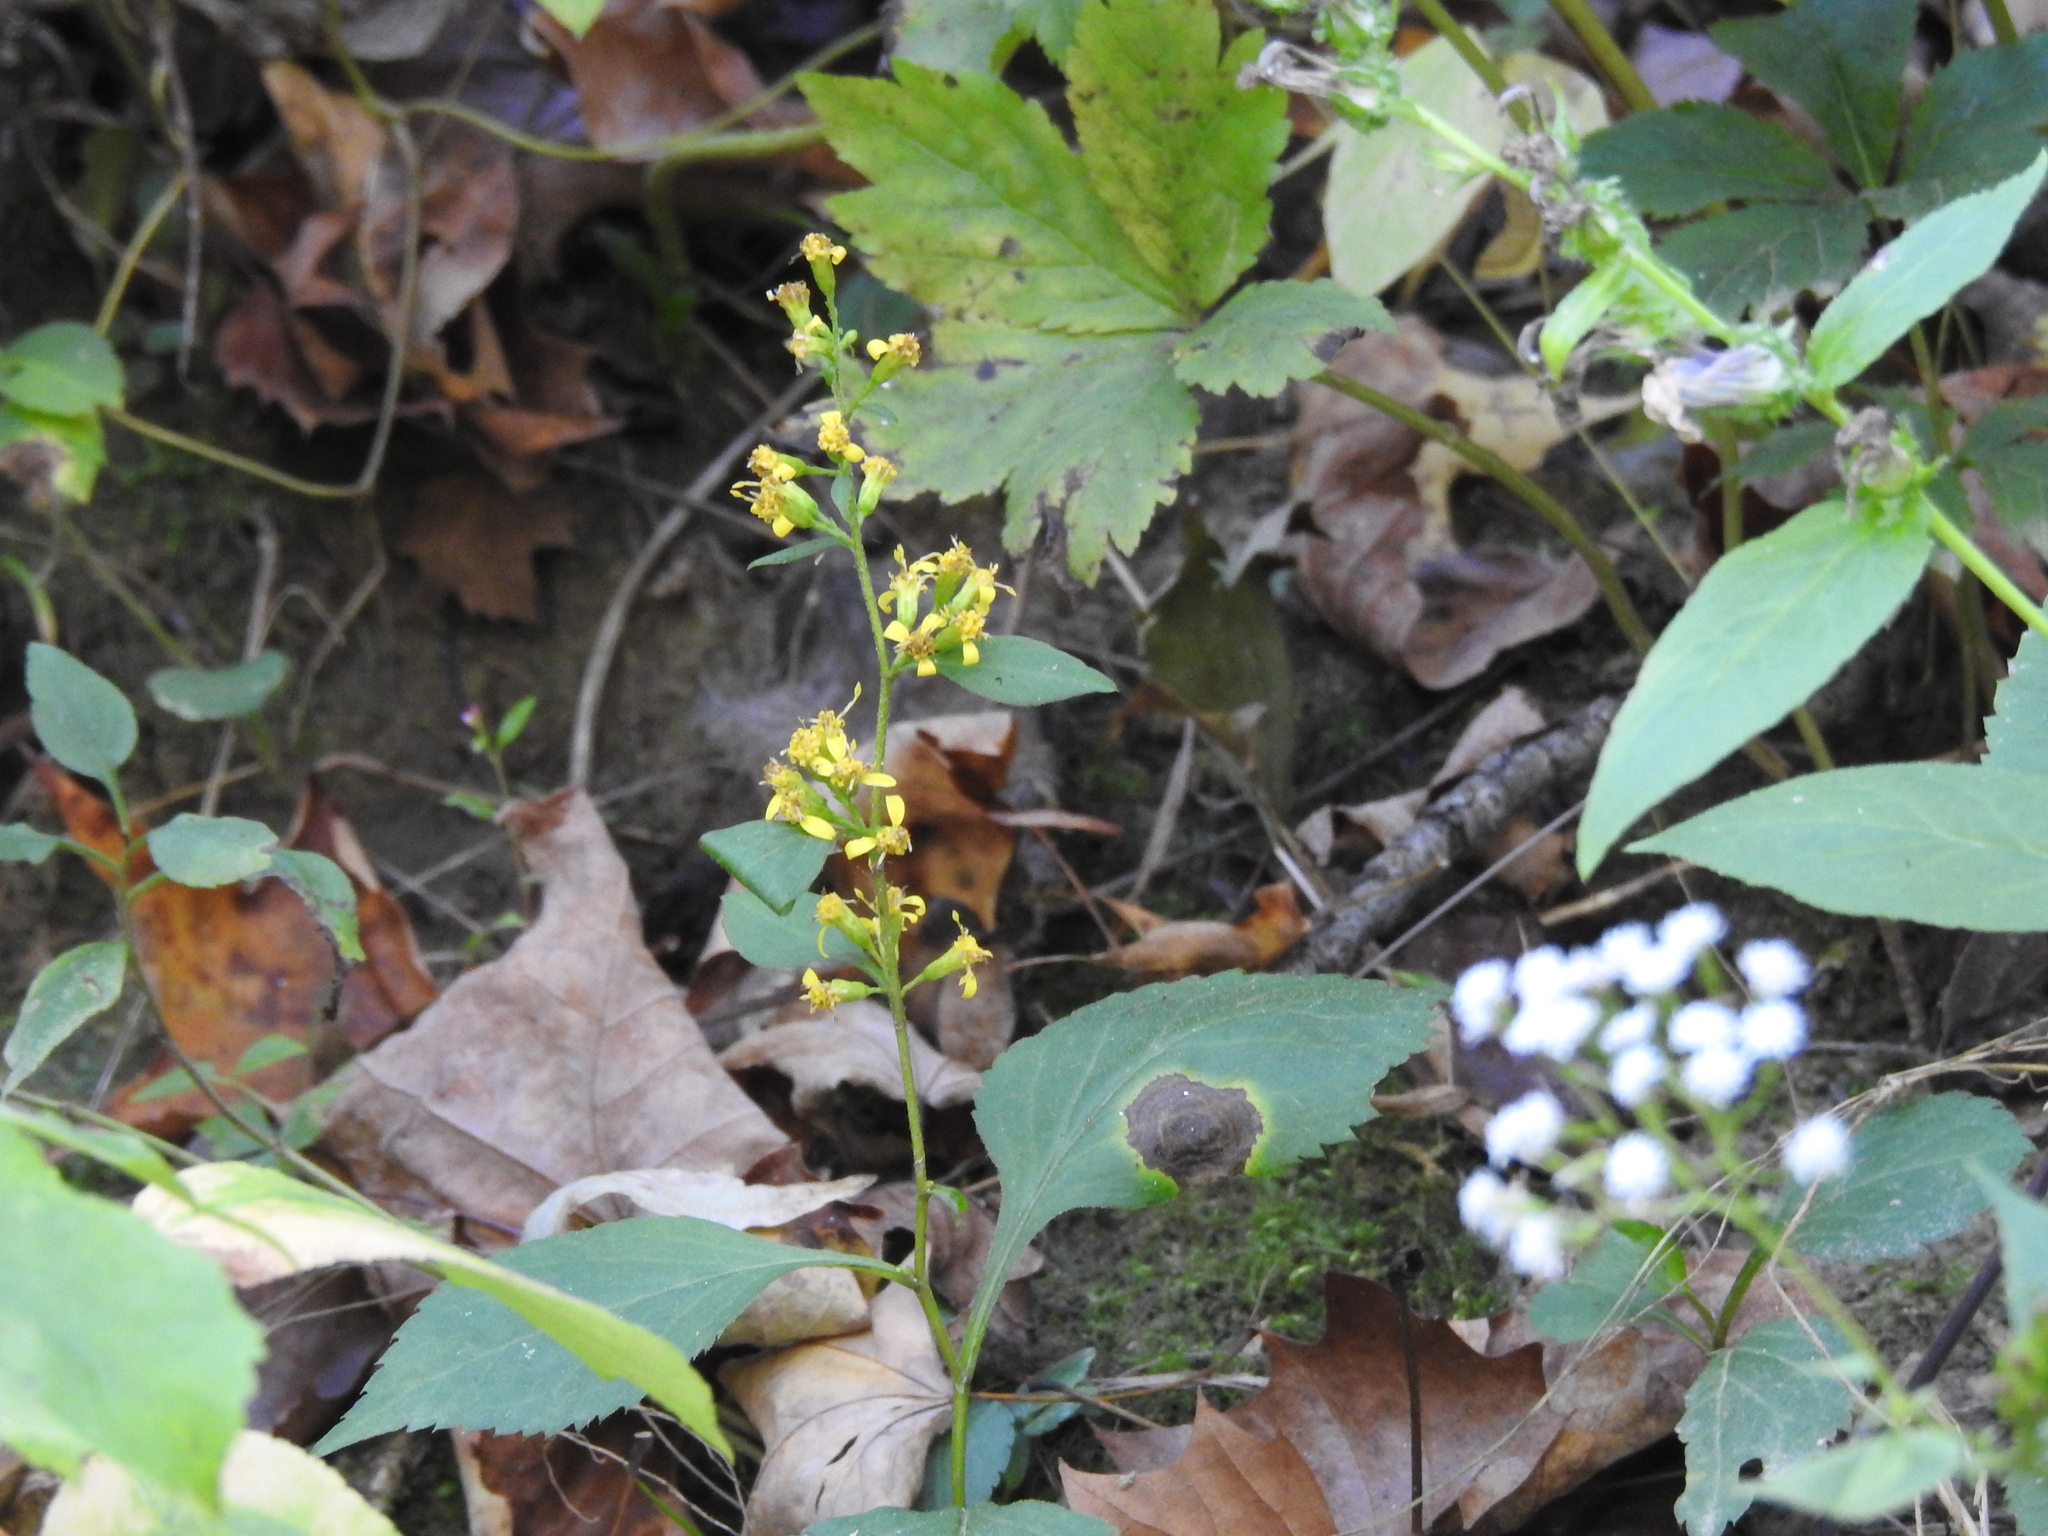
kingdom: Plantae
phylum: Tracheophyta
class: Magnoliopsida
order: Asterales
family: Asteraceae
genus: Solidago
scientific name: Solidago flexicaulis
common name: Zig-zag goldenrod
